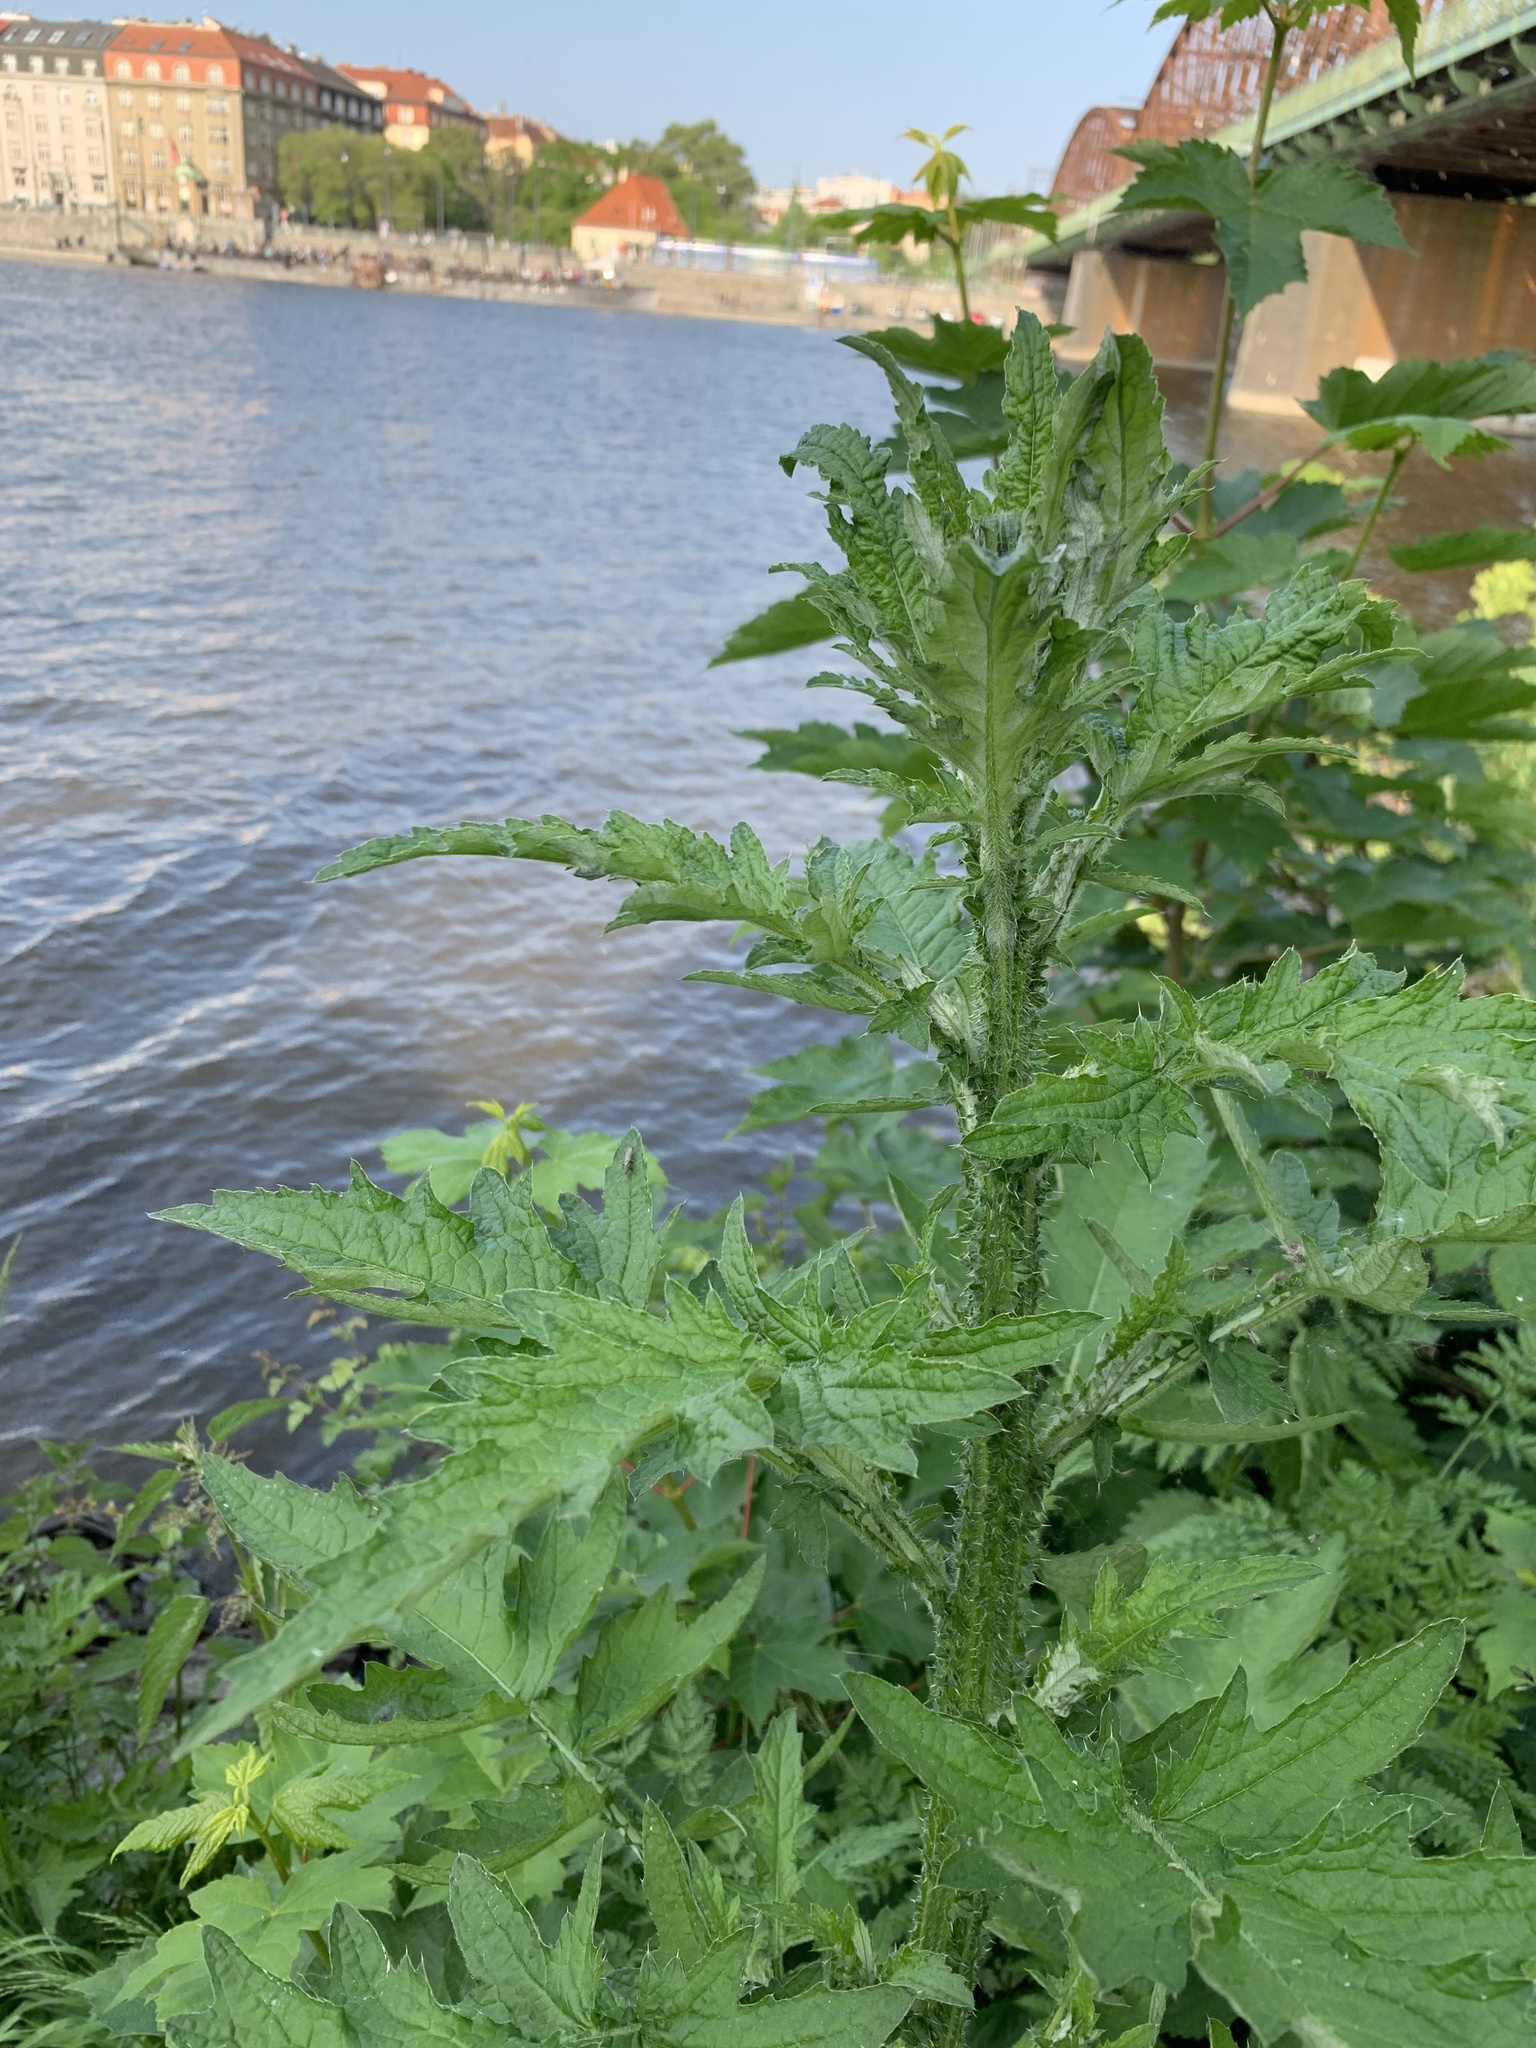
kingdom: Plantae
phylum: Tracheophyta
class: Magnoliopsida
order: Asterales
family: Asteraceae
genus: Carduus
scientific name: Carduus crispus
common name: Welted thistle
